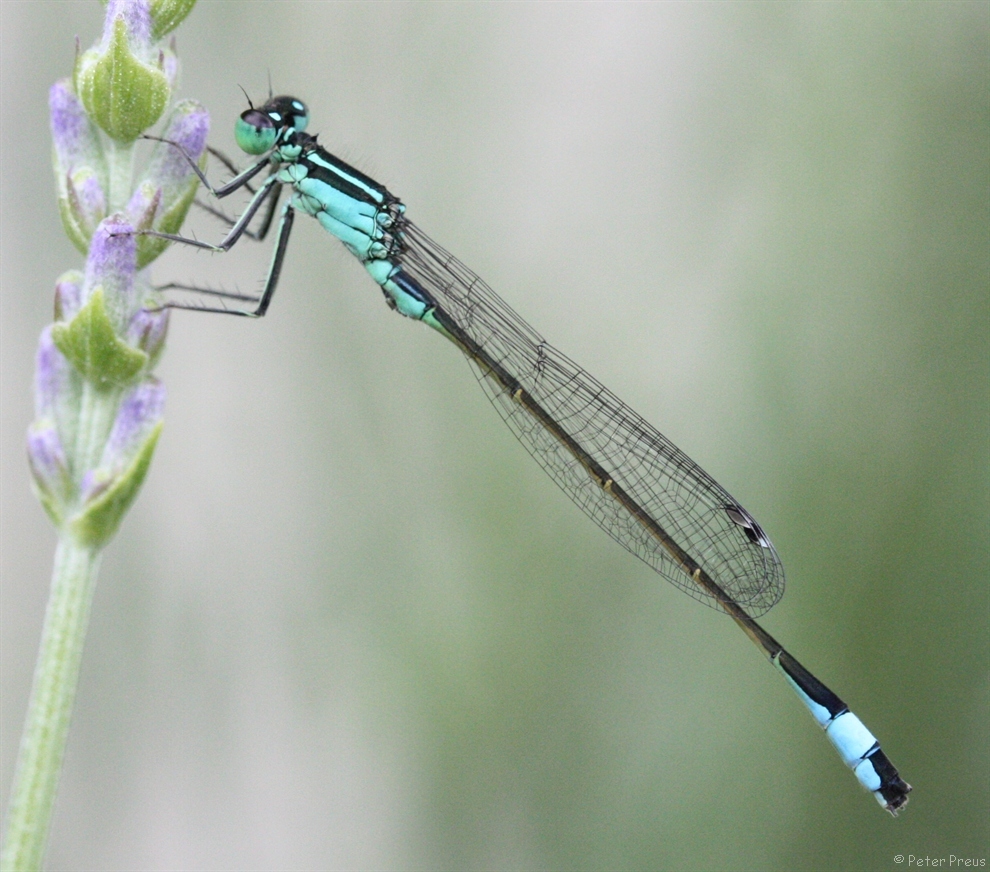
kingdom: Animalia
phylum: Arthropoda
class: Insecta
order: Odonata
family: Coenagrionidae
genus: Ischnura
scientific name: Ischnura elegans
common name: Blue-tailed damselfly
